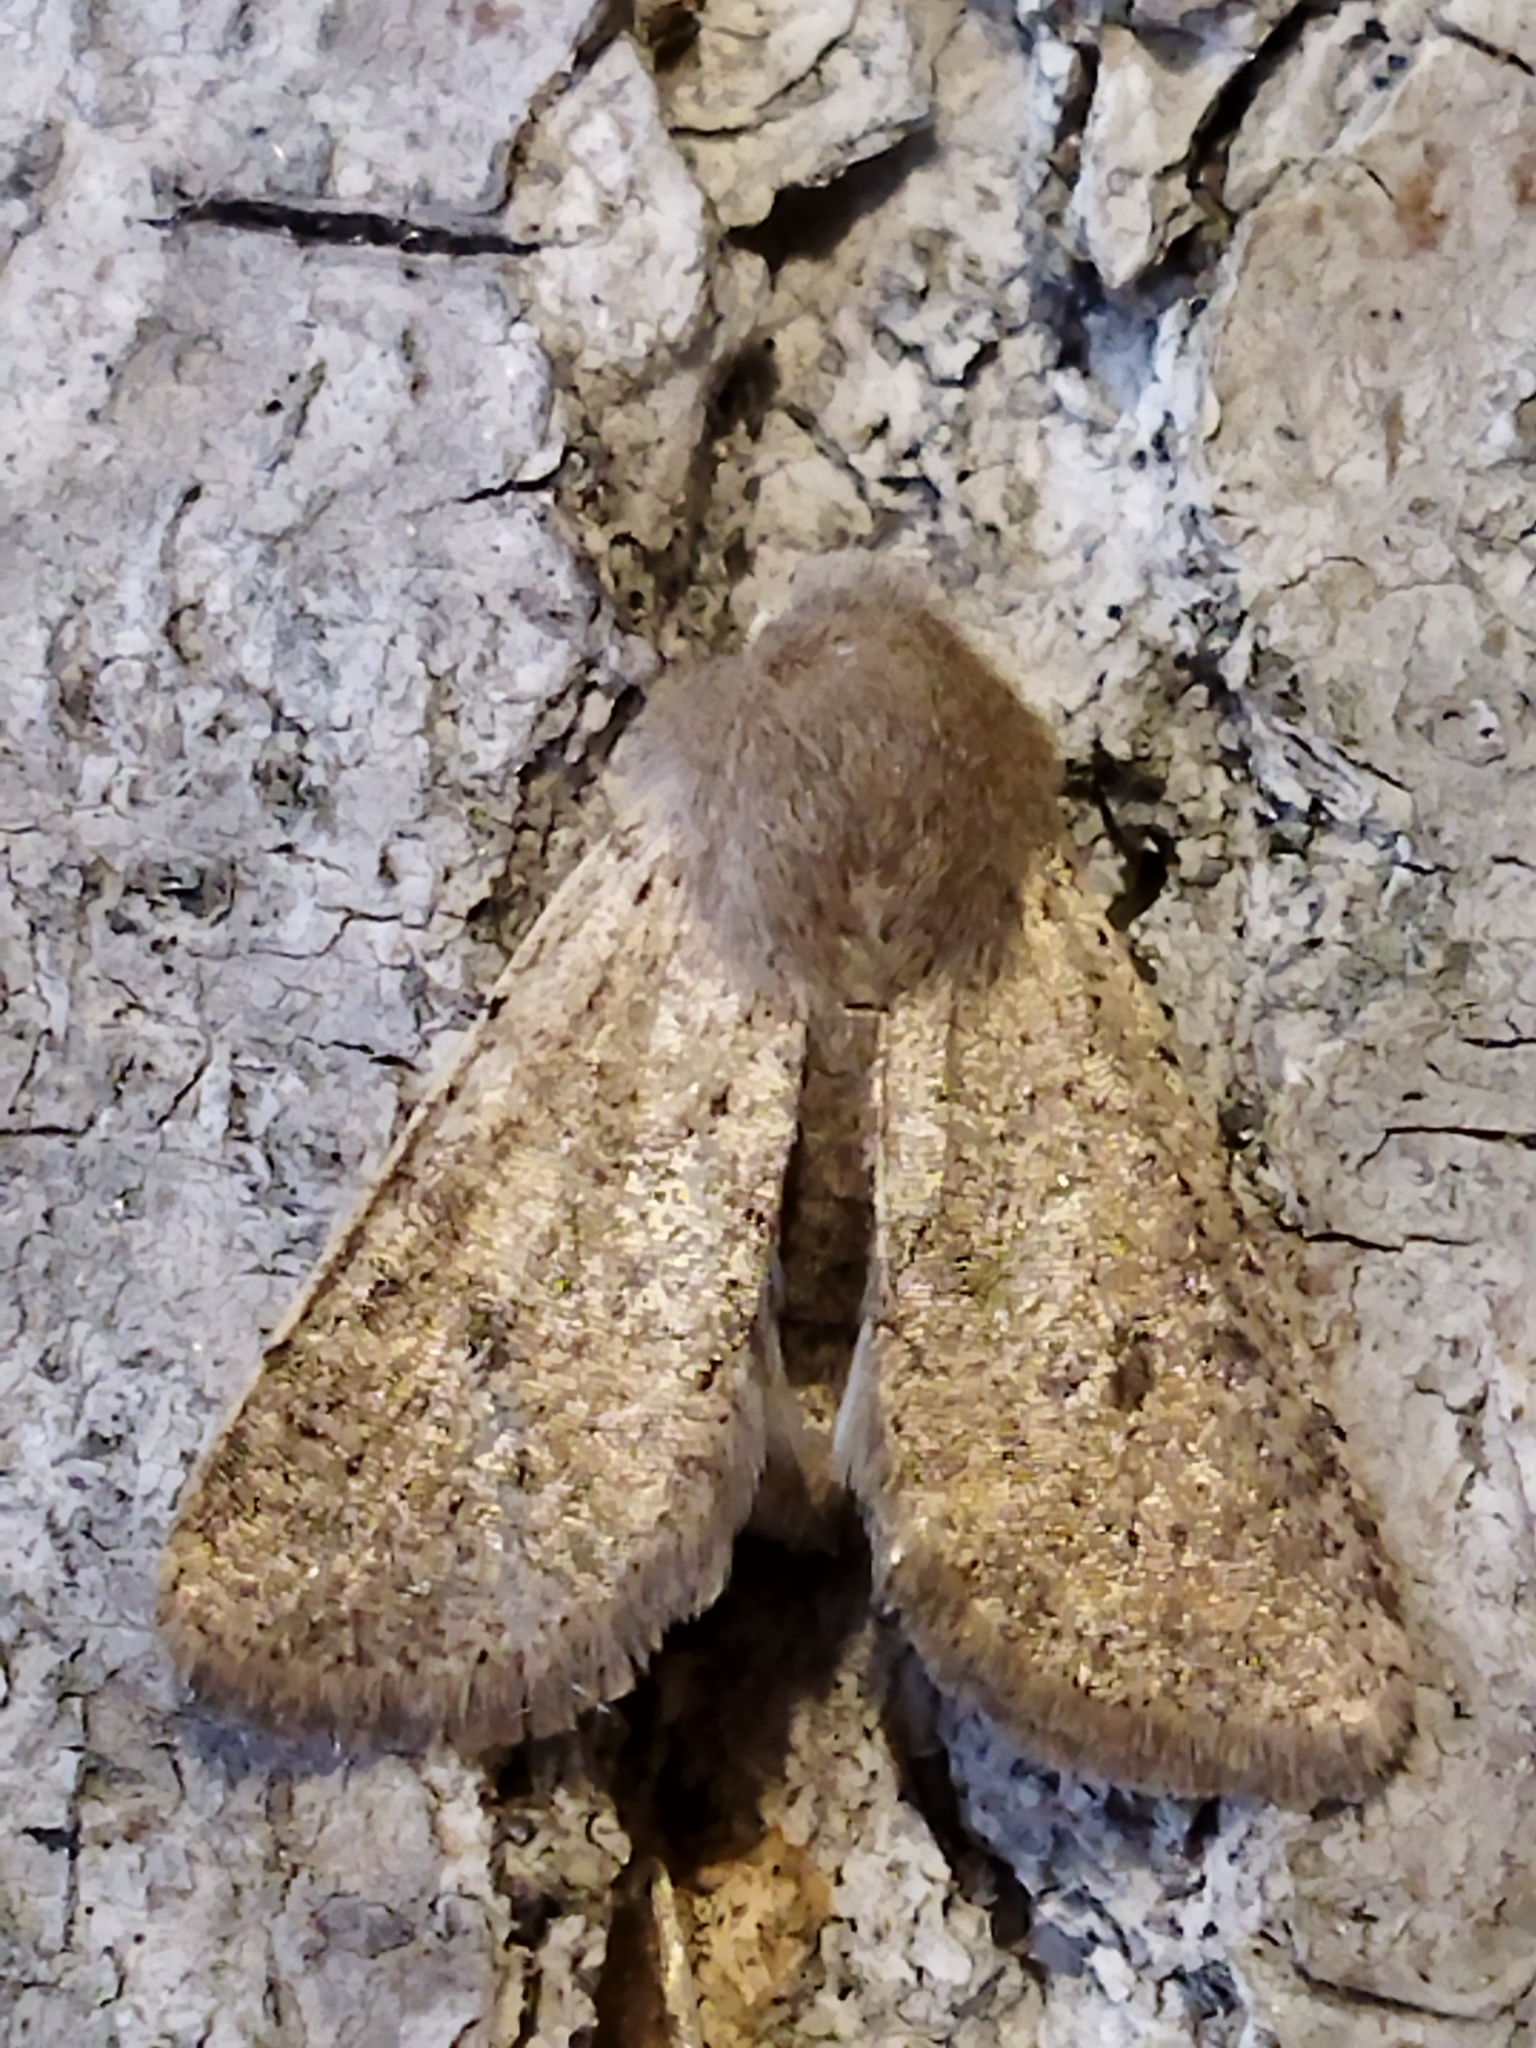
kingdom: Animalia
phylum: Arthropoda
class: Insecta
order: Lepidoptera
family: Noctuidae
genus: Orthosia
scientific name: Orthosia cruda
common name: Small quaker
